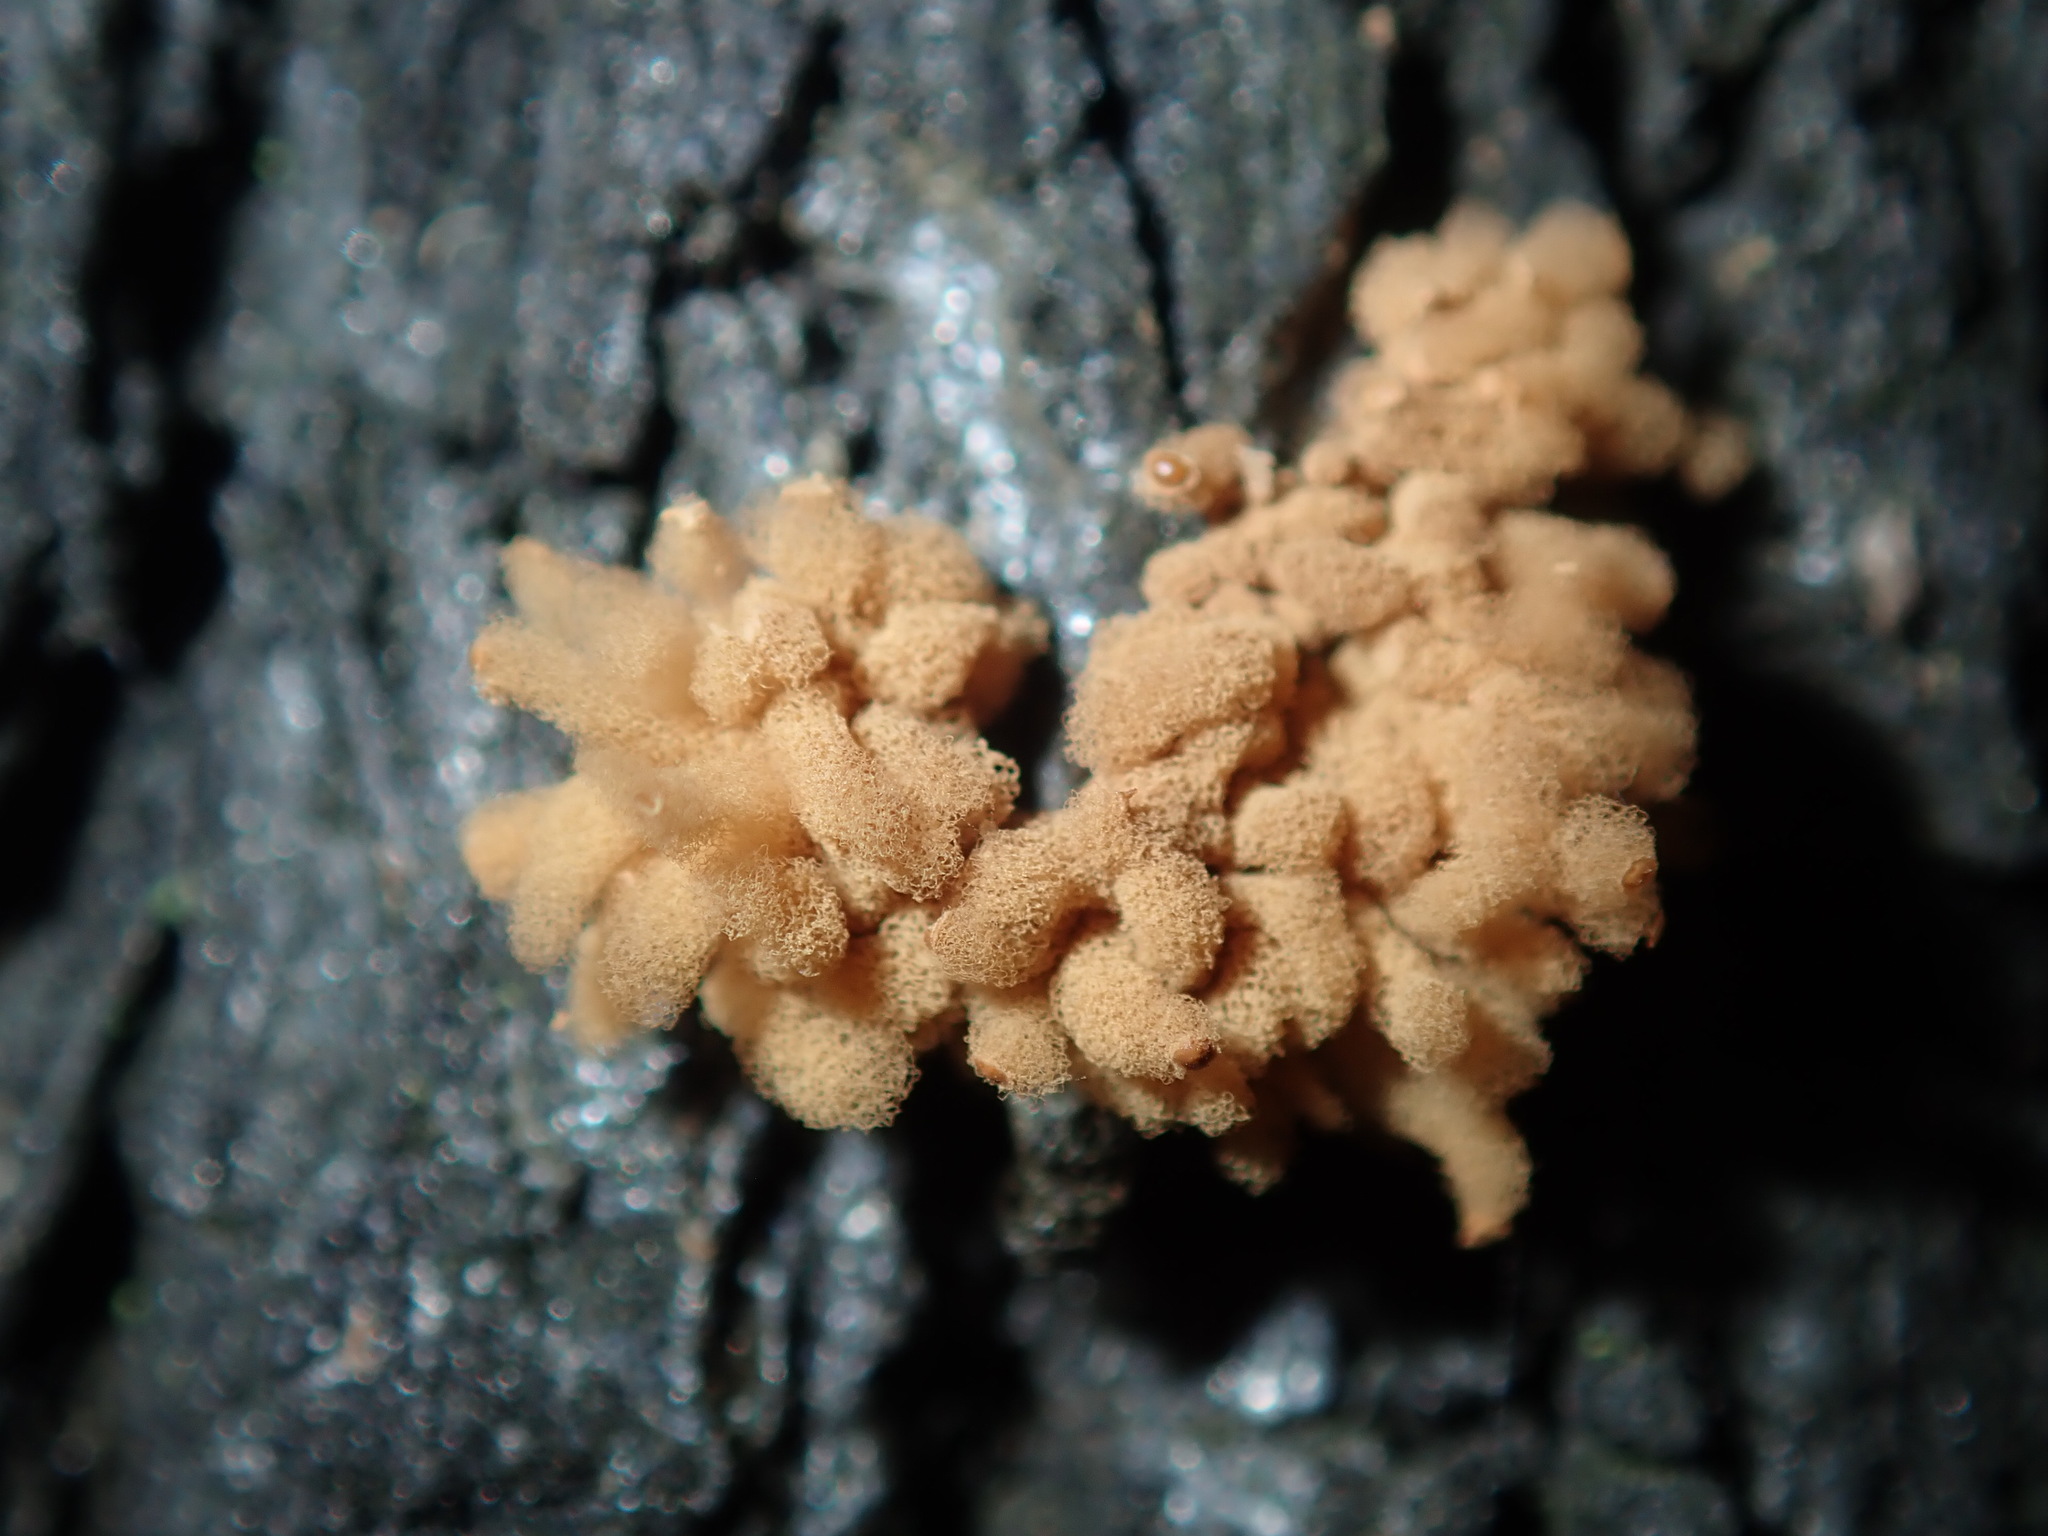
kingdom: Protozoa
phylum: Mycetozoa
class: Myxomycetes
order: Trichiales
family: Arcyriaceae
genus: Arcyria
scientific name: Arcyria obvelata
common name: Yellow carnival candy slime
